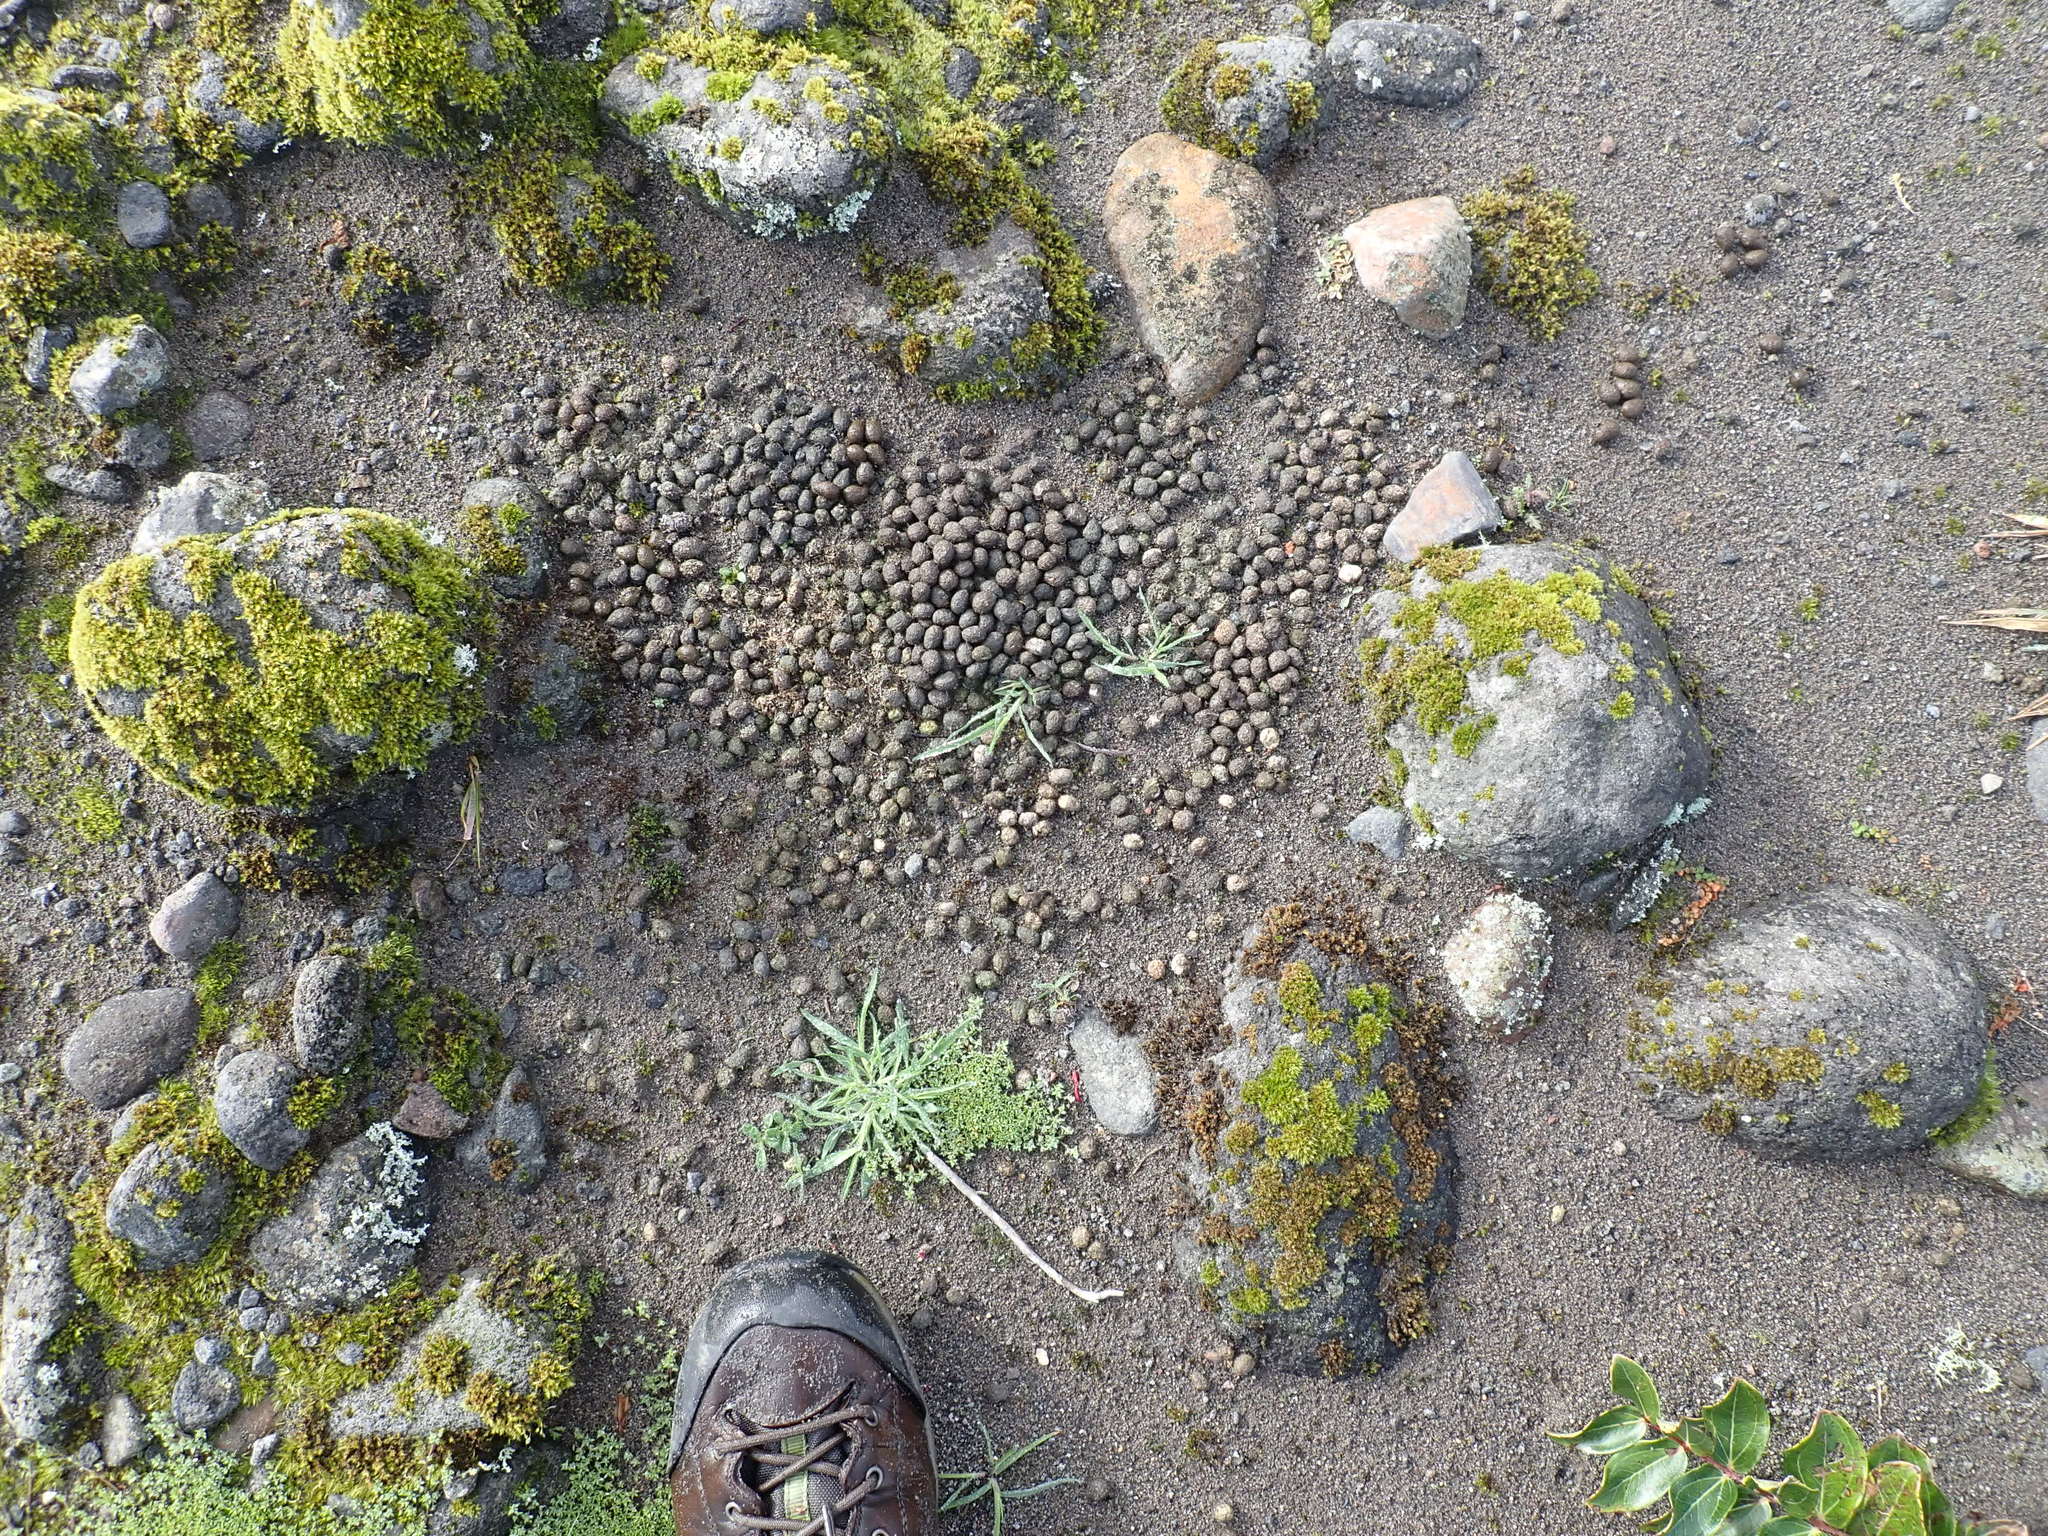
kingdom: Animalia
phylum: Chordata
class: Mammalia
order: Lagomorpha
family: Leporidae
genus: Oryctolagus
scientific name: Oryctolagus cuniculus
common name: European rabbit
